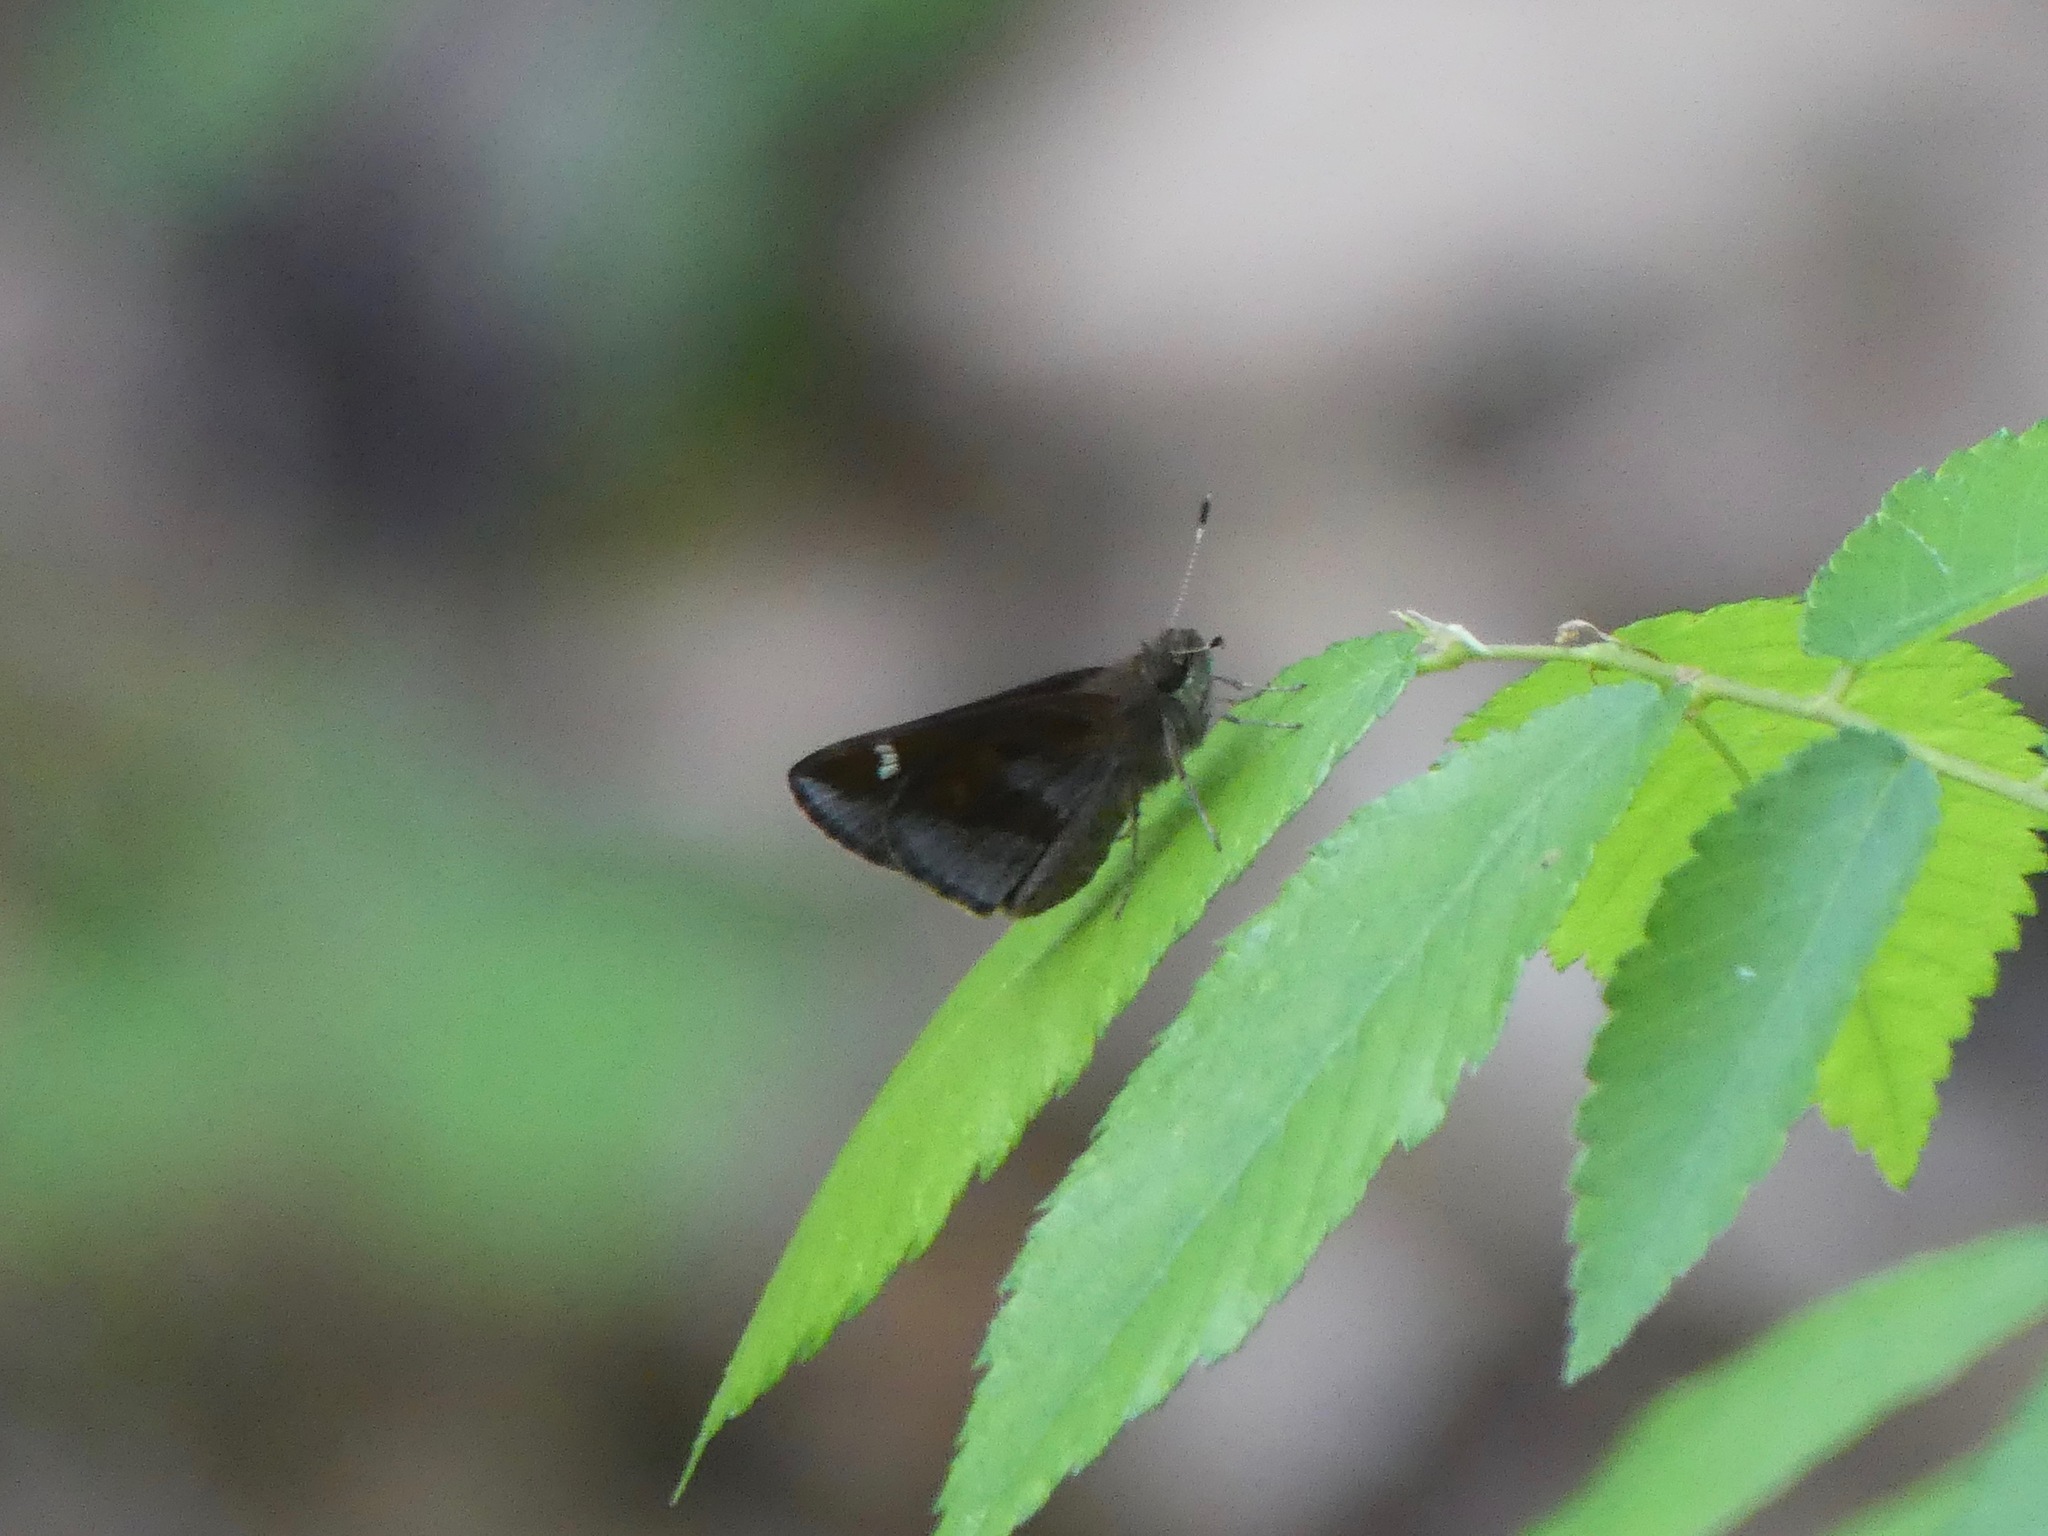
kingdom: Animalia
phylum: Arthropoda
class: Insecta
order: Lepidoptera
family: Hesperiidae
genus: Lerema
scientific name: Lerema accius
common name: Clouded skipper
